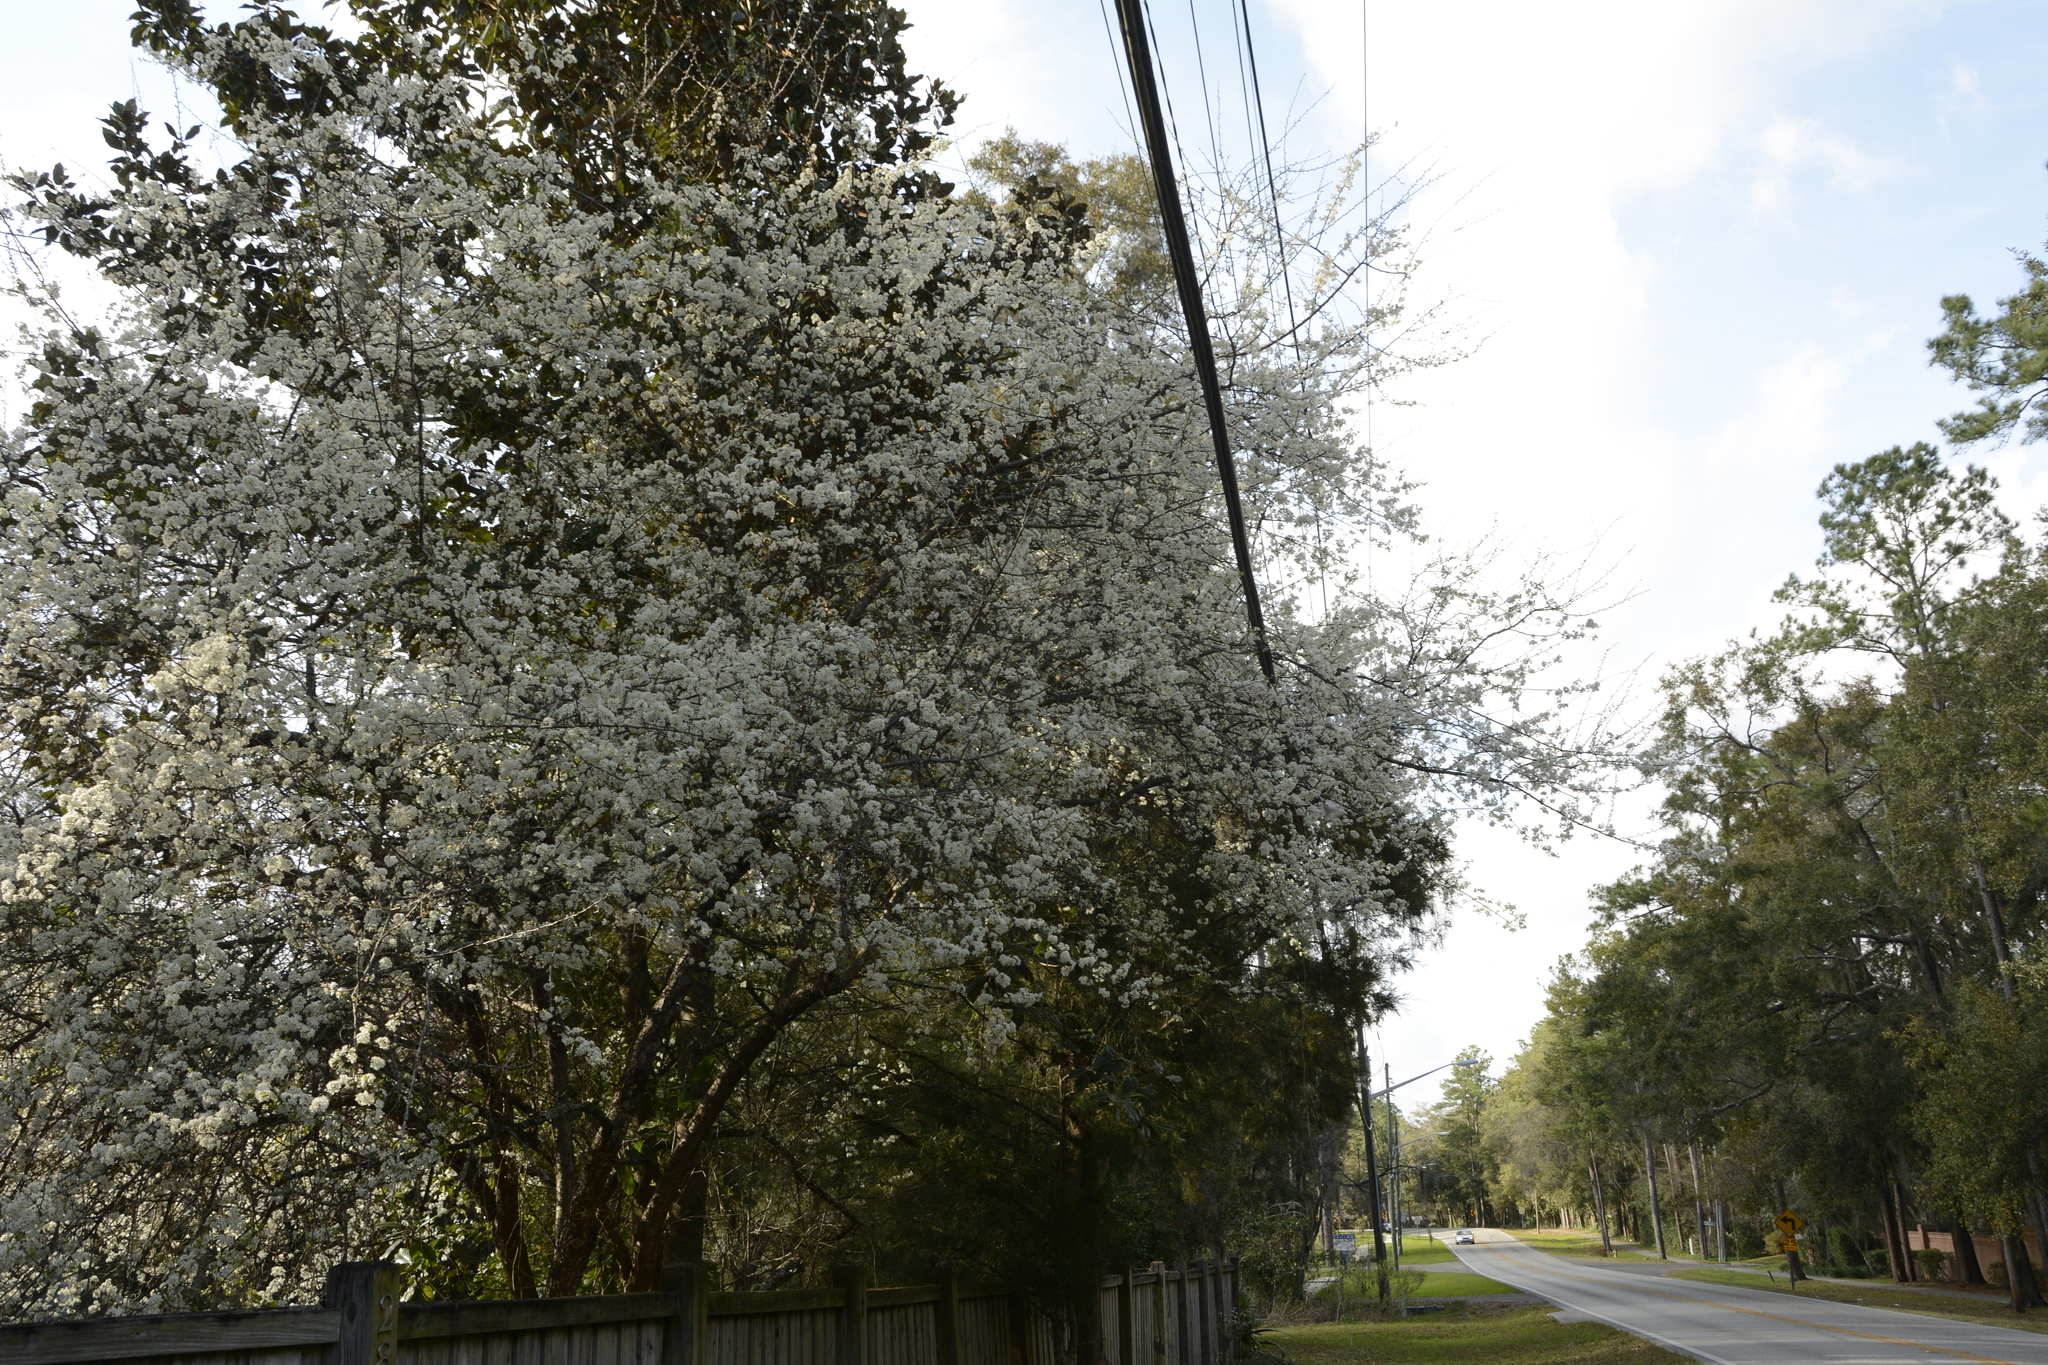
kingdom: Plantae
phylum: Tracheophyta
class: Magnoliopsida
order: Rosales
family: Rosaceae
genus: Pyrus
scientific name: Pyrus calleryana
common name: Callery pear
